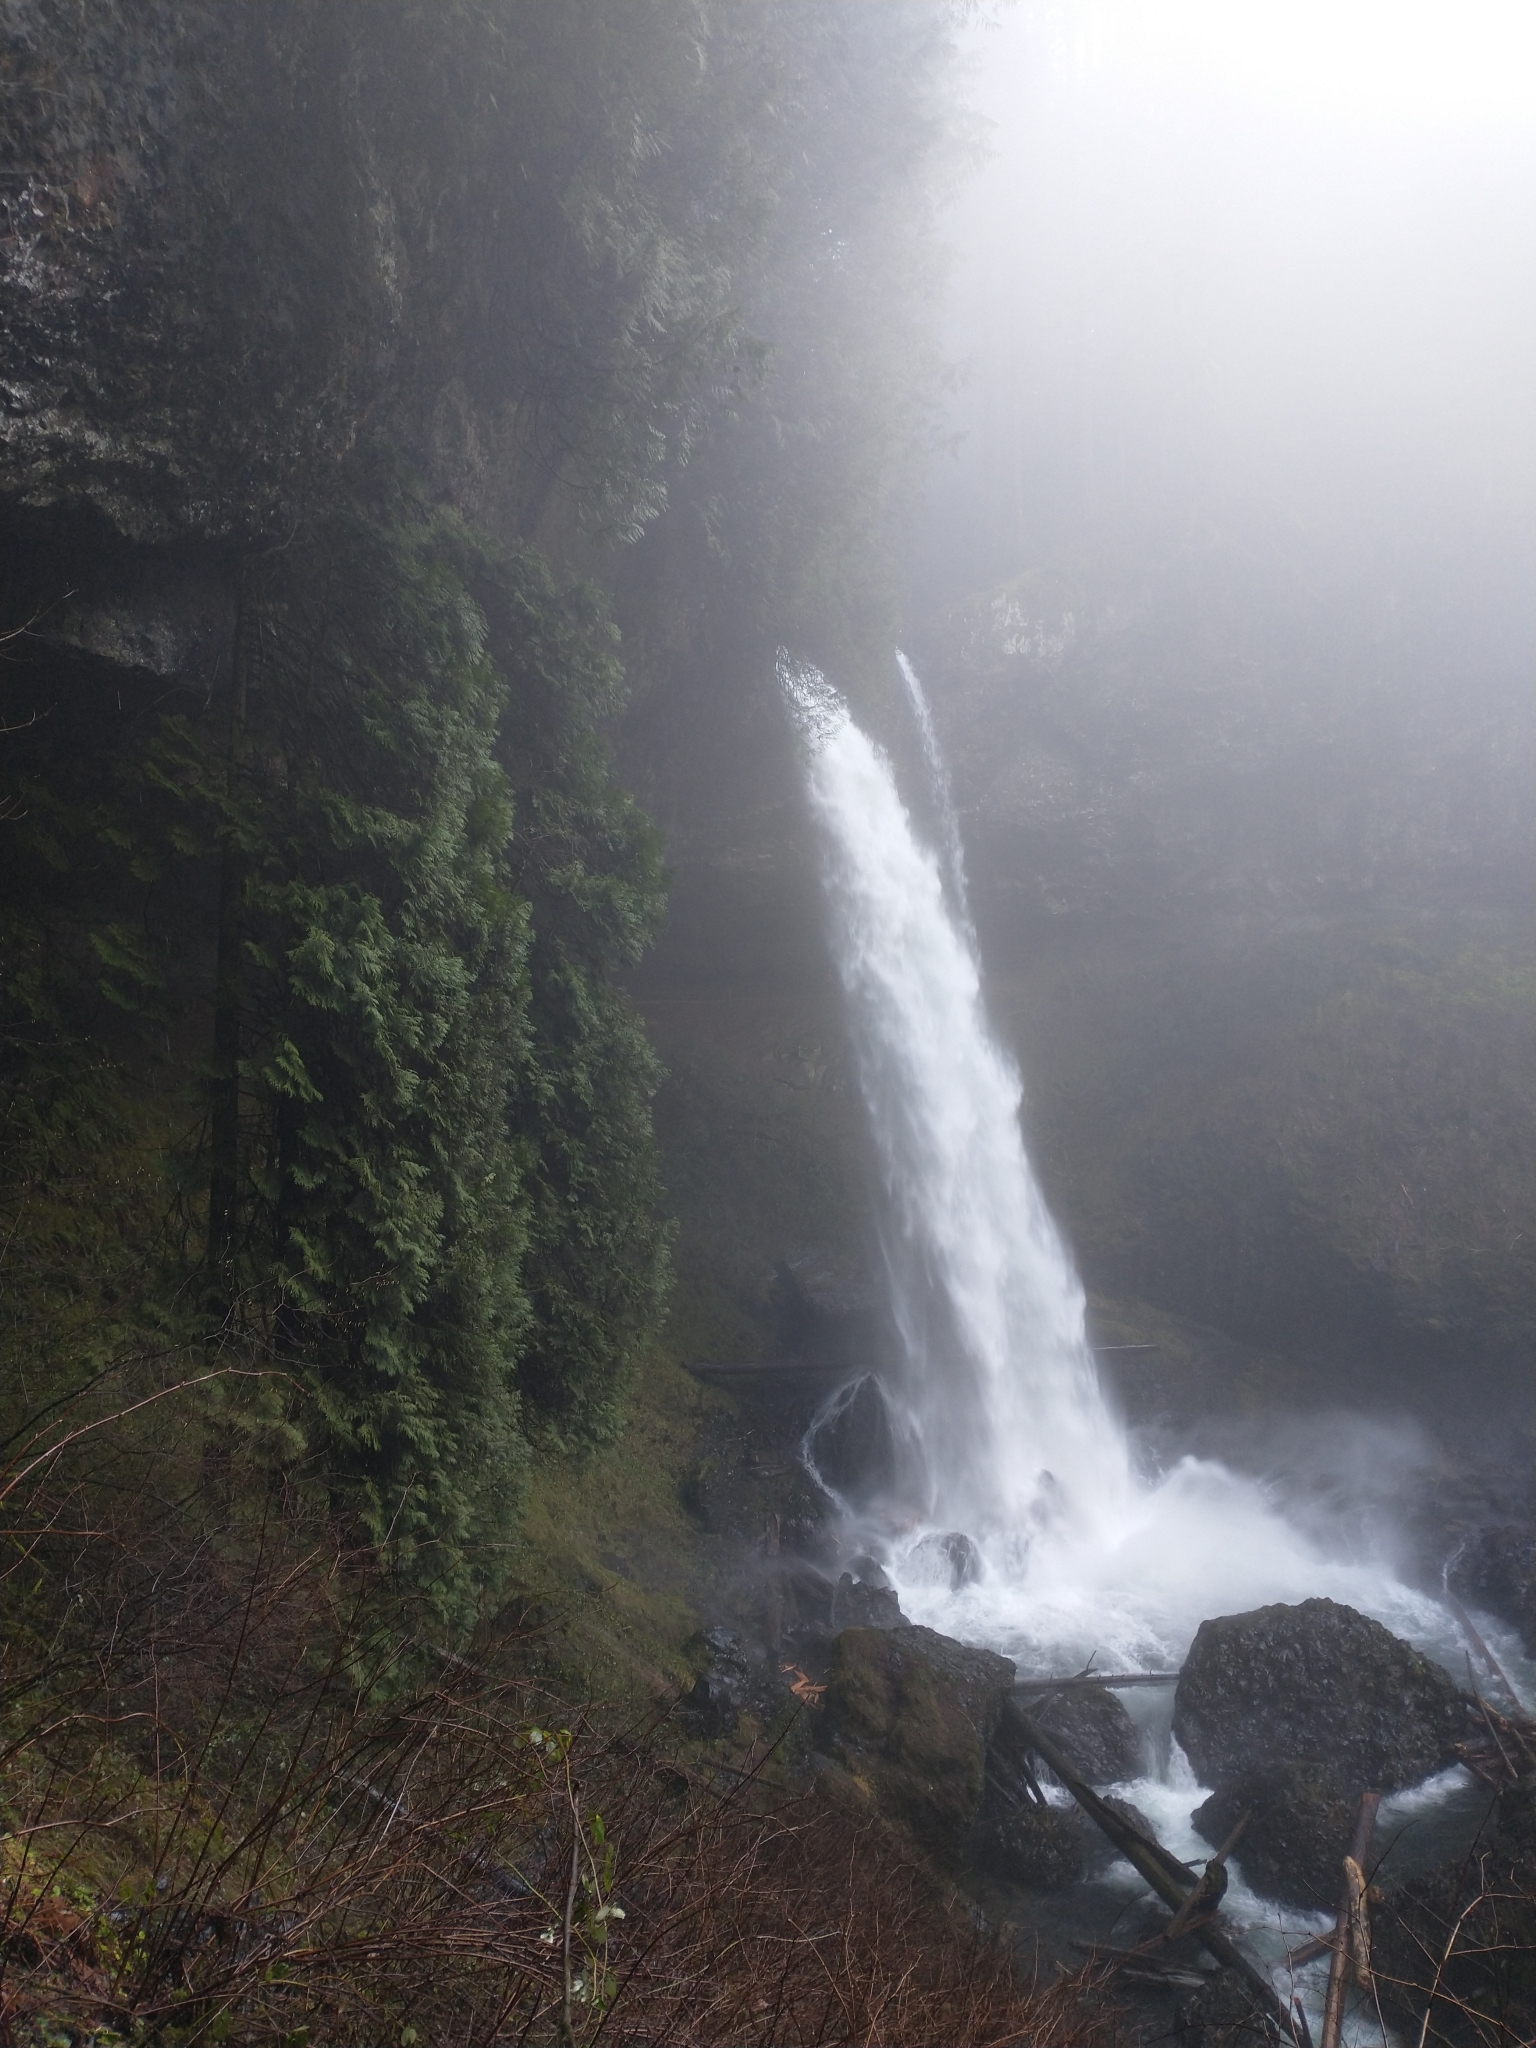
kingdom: Plantae
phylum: Tracheophyta
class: Pinopsida
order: Pinales
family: Cupressaceae
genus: Thuja
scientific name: Thuja plicata
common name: Western red-cedar
